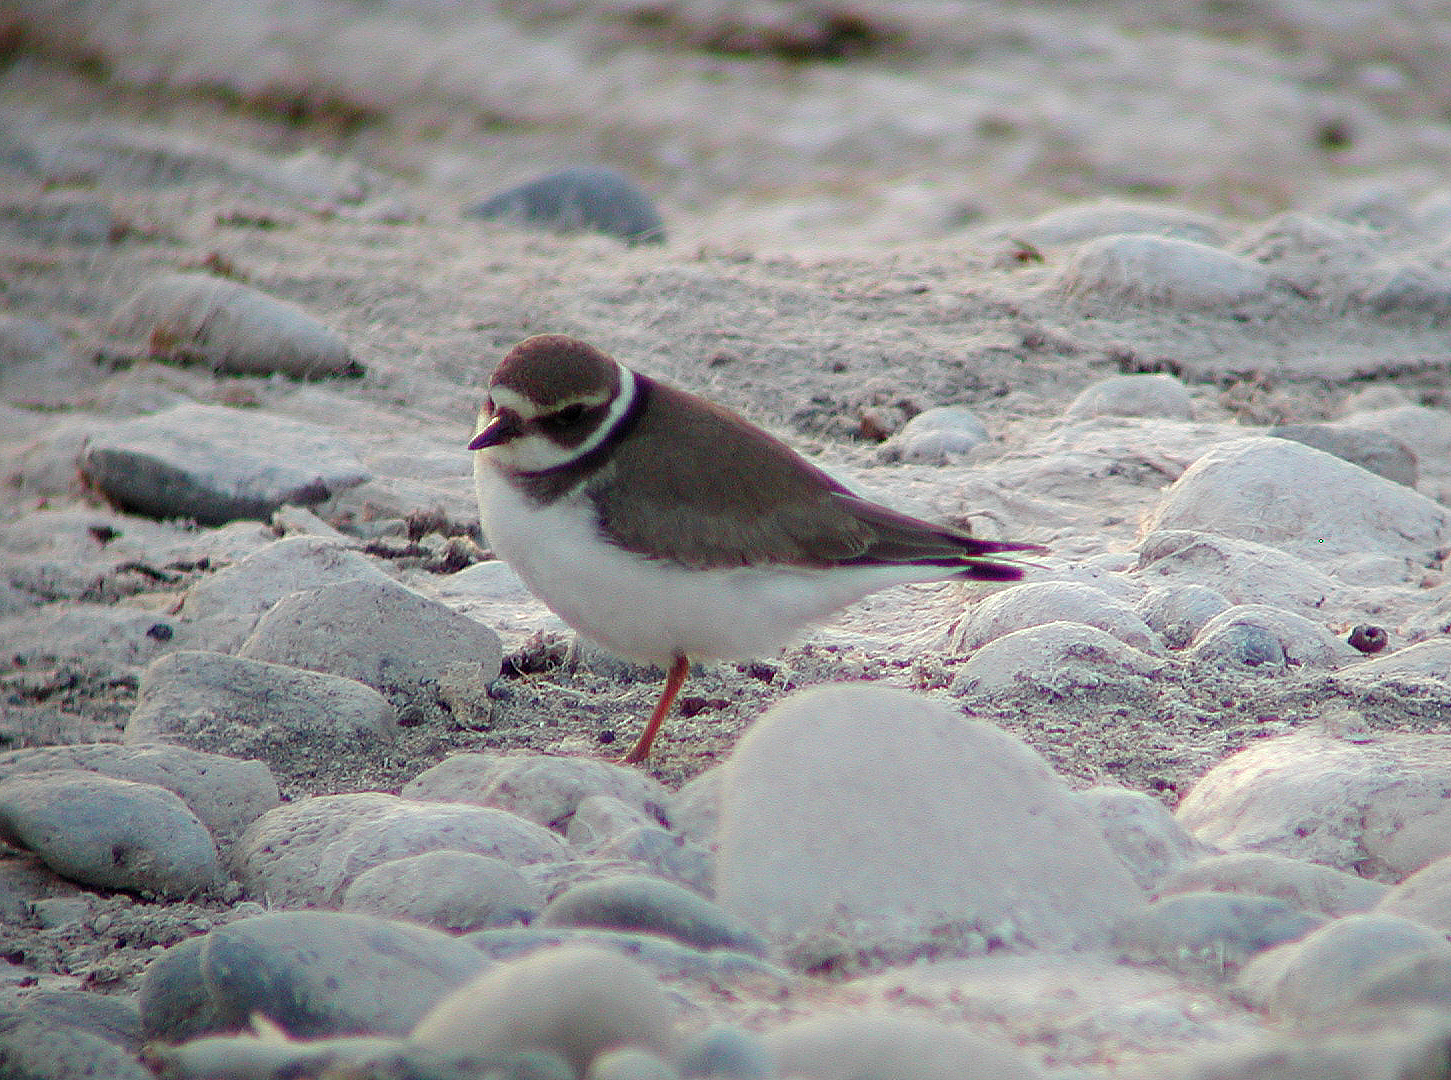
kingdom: Animalia
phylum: Chordata
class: Aves
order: Charadriiformes
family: Charadriidae
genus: Charadrius
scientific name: Charadrius hiaticula
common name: Common ringed plover
